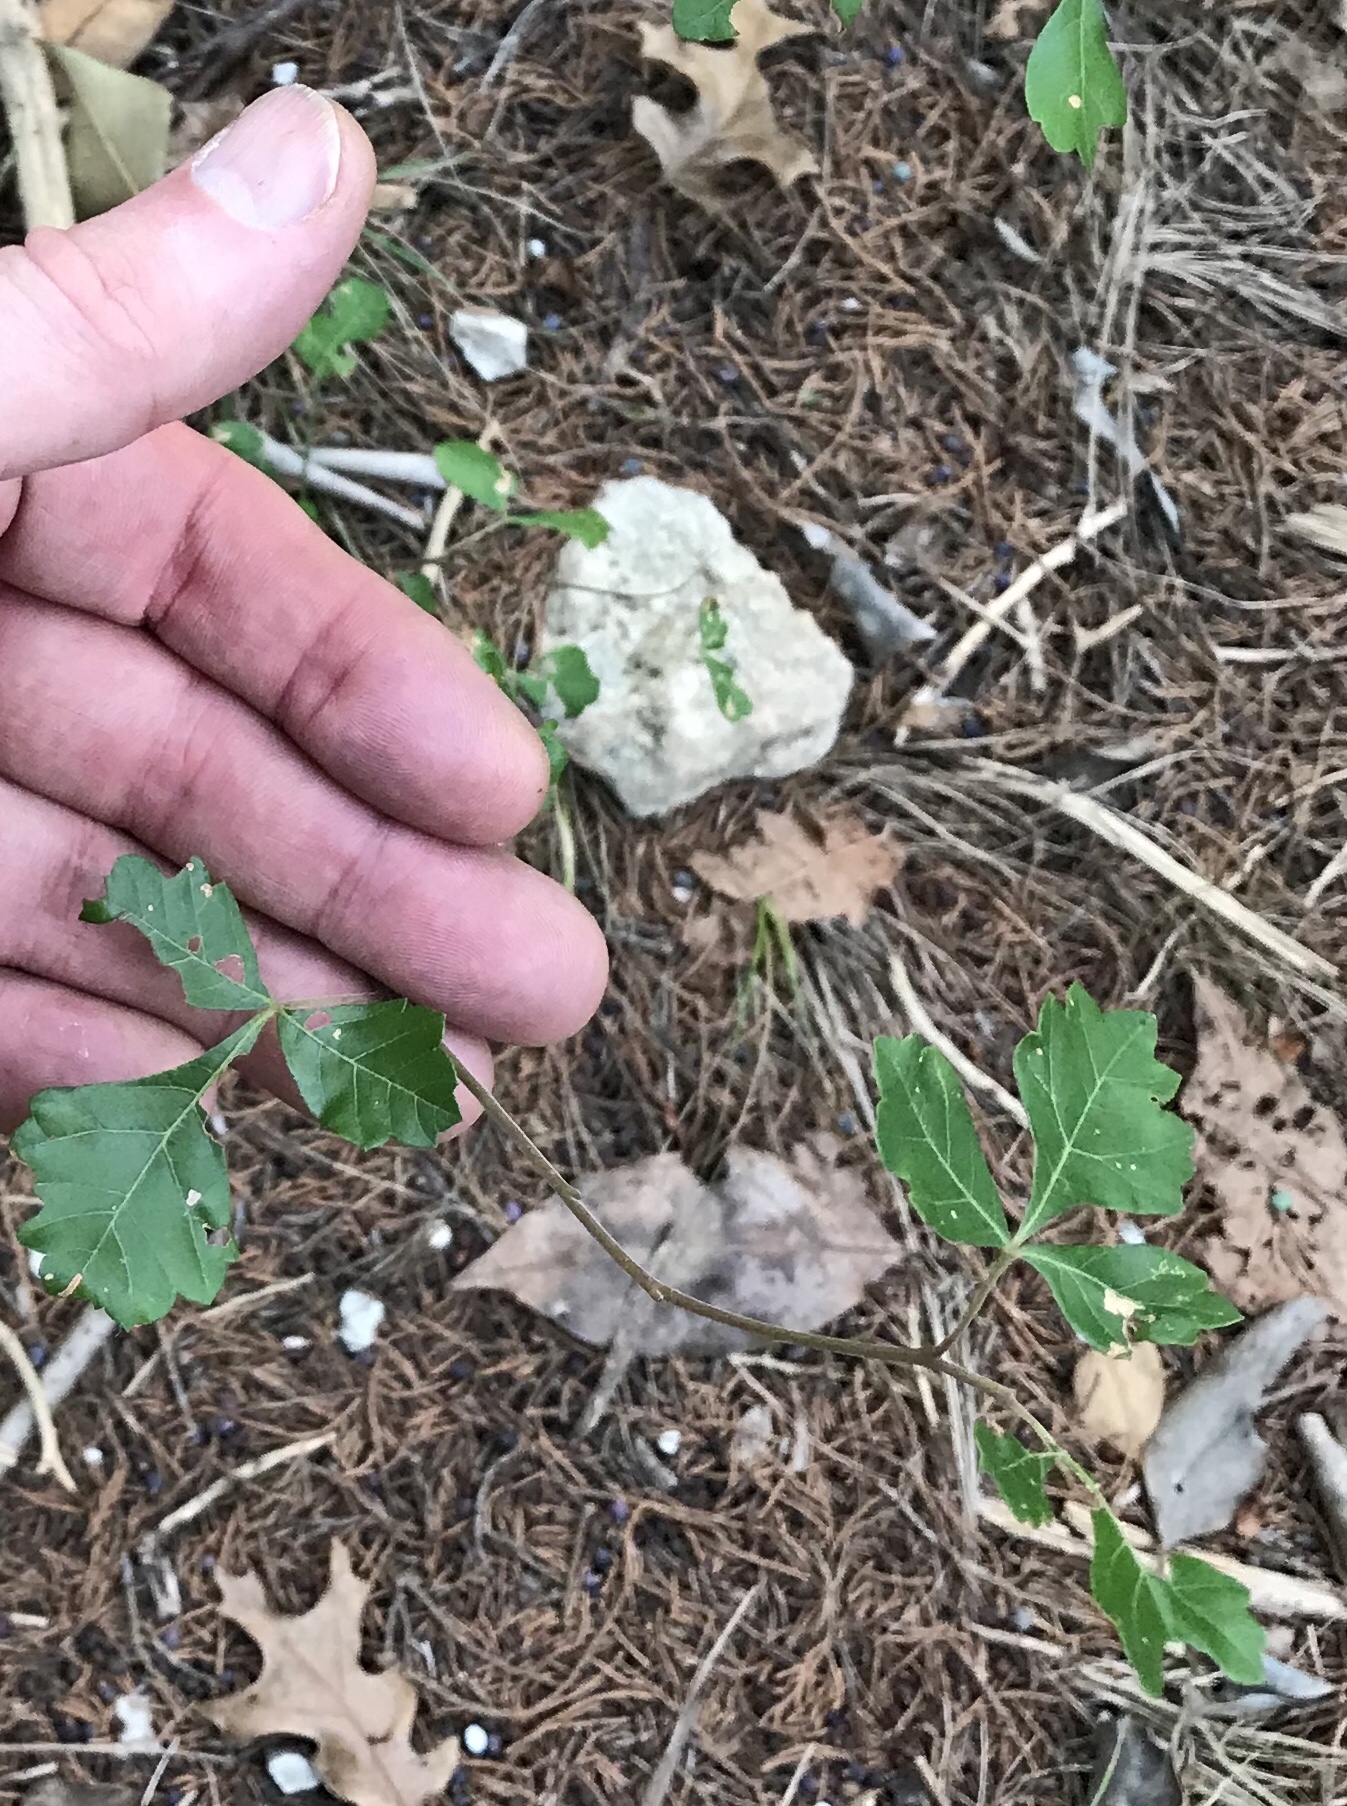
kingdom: Plantae
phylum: Tracheophyta
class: Magnoliopsida
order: Sapindales
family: Anacardiaceae
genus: Rhus
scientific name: Rhus aromatica
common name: Aromatic sumac
